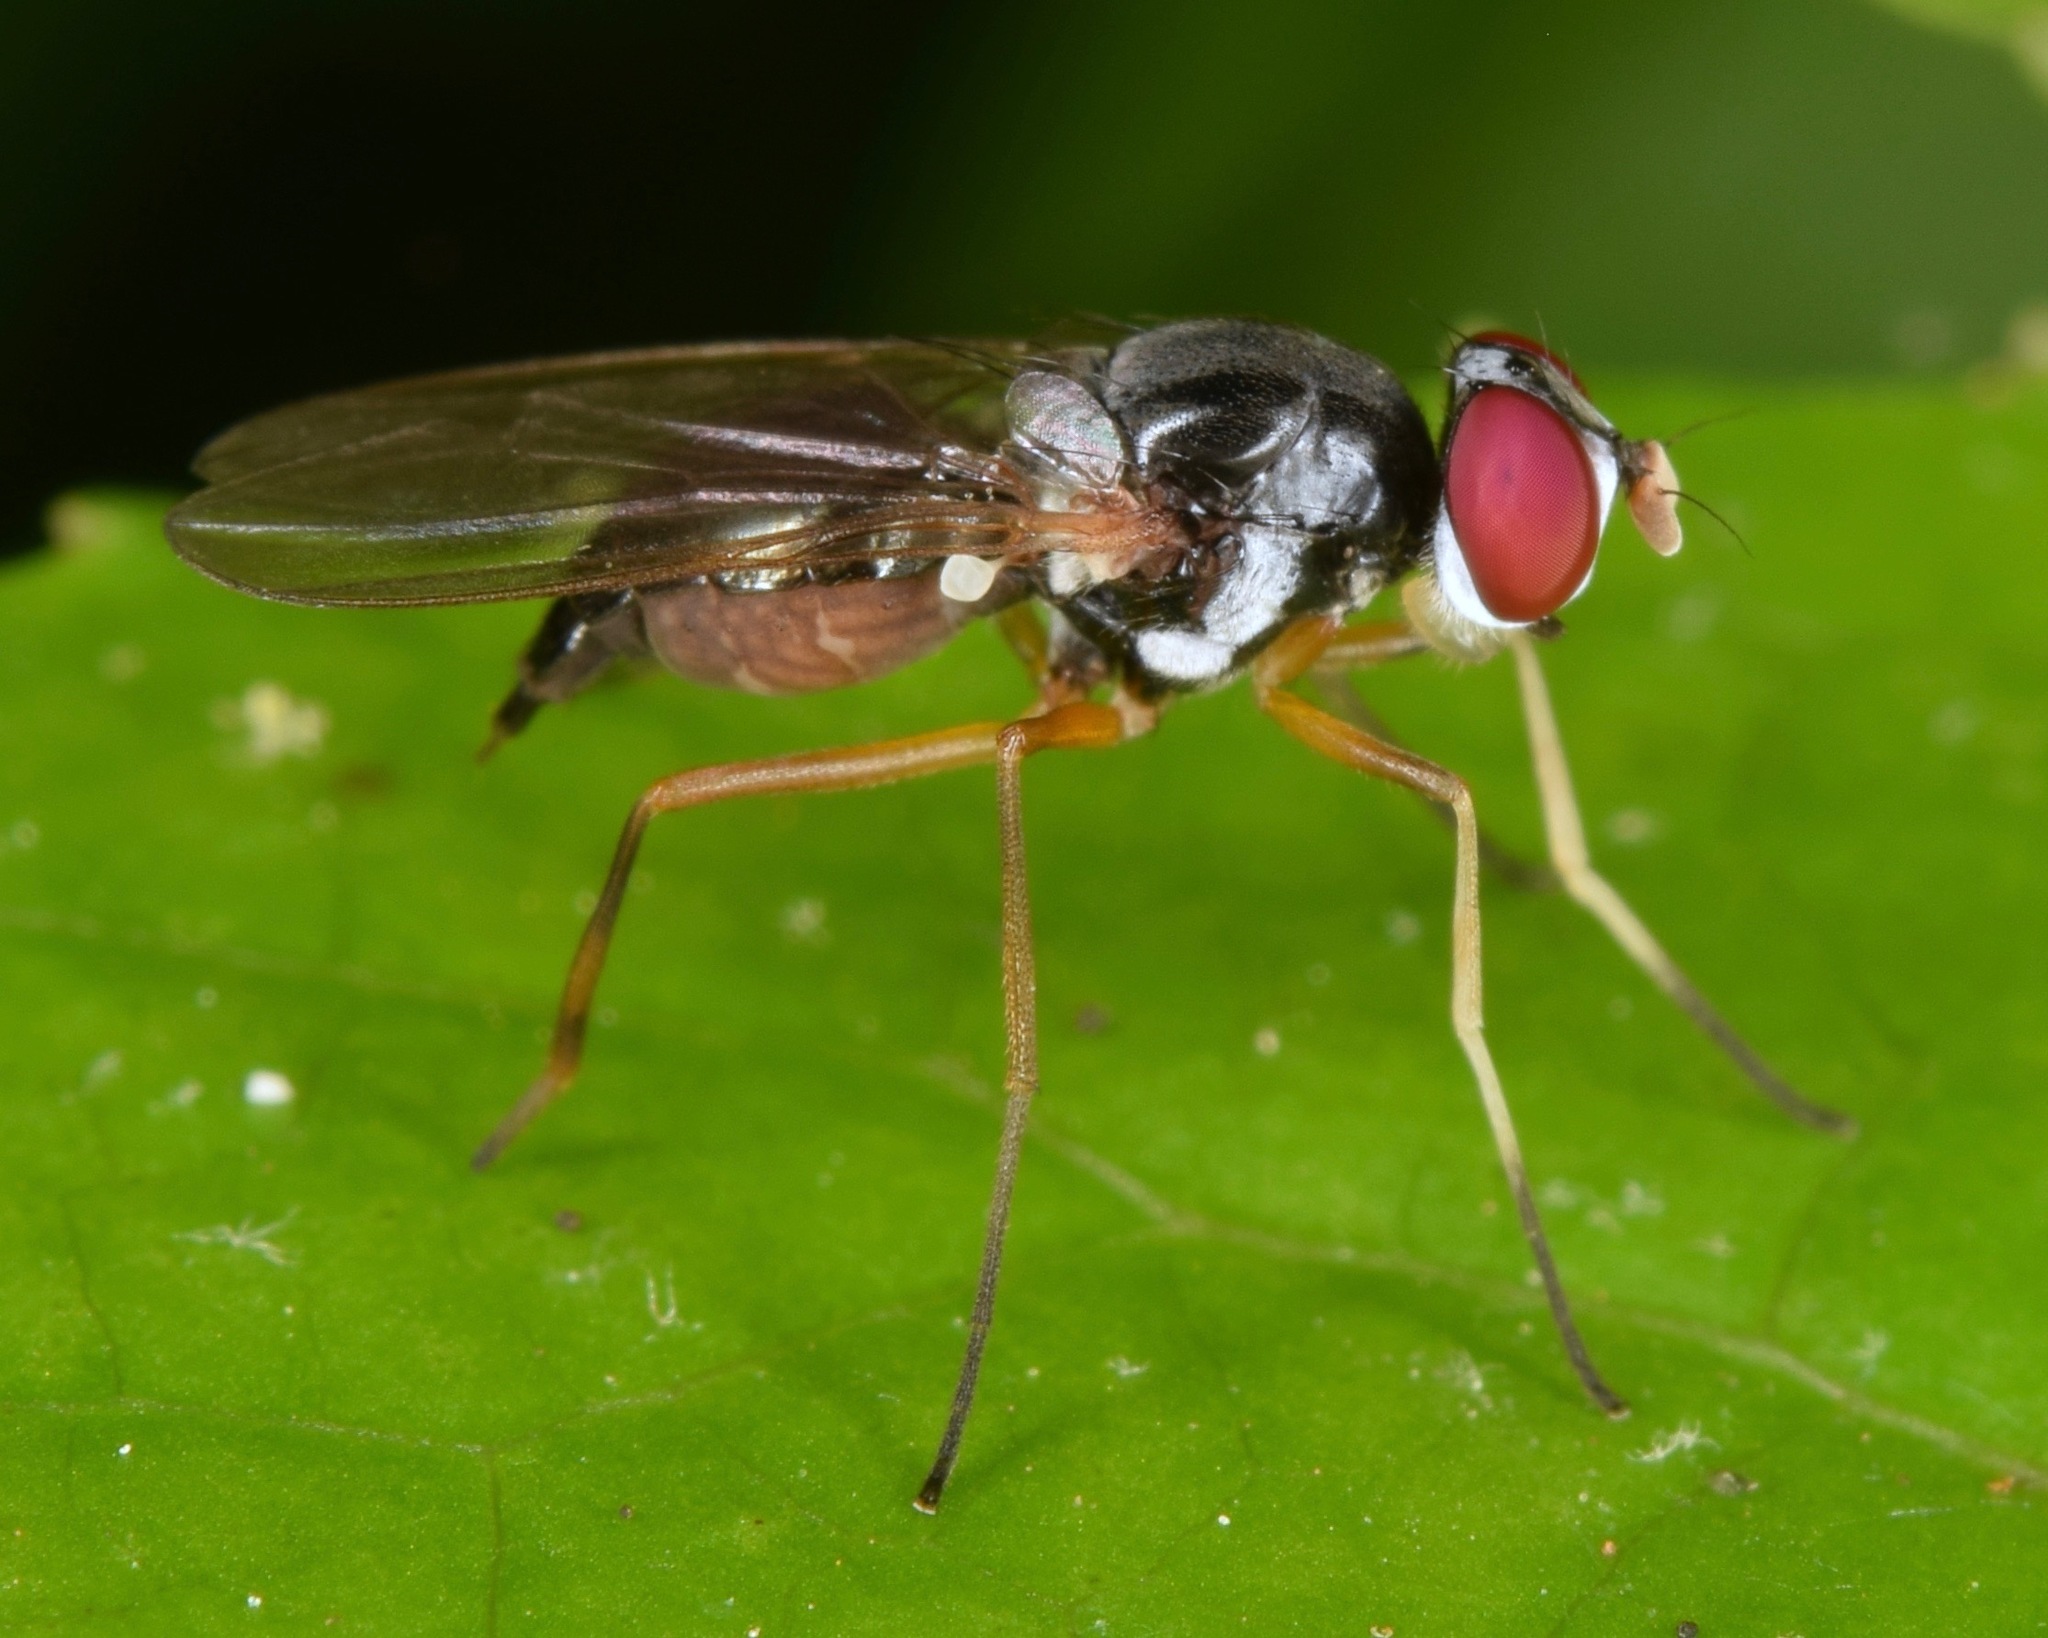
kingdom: Animalia
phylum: Arthropoda
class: Insecta
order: Diptera
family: Tanypezidae
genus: Tanypeza
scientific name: Tanypeza picticornis
